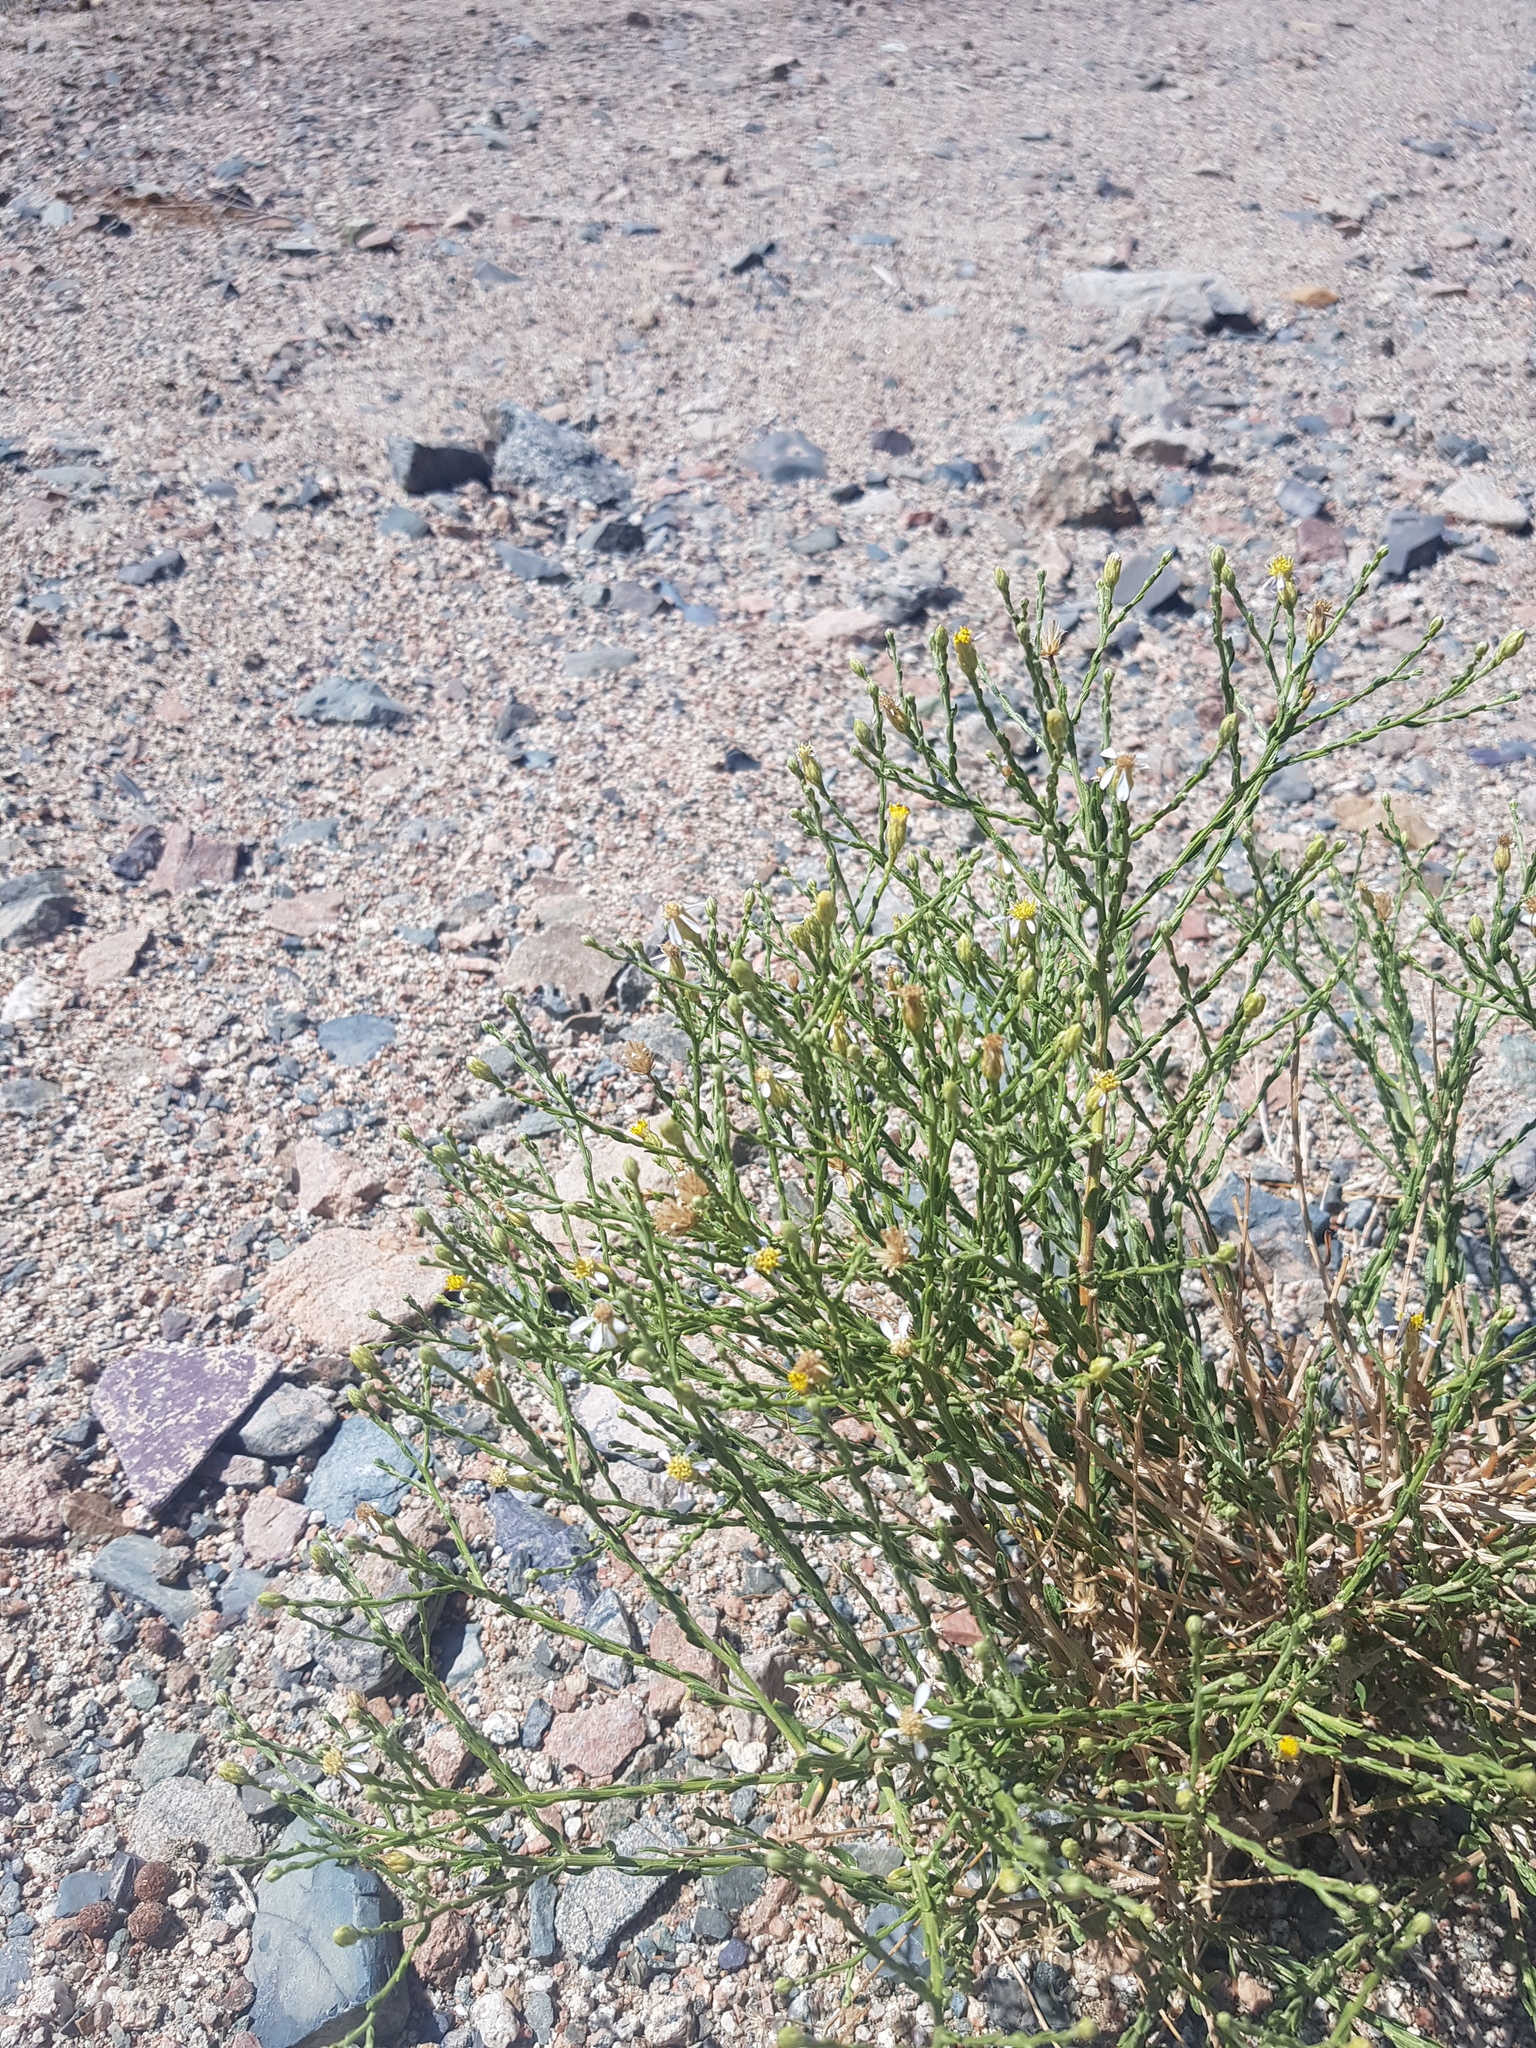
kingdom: Plantae
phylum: Tracheophyta
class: Magnoliopsida
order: Asterales
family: Asteraceae
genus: Asterothamnus
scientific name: Asterothamnus molliusculus
